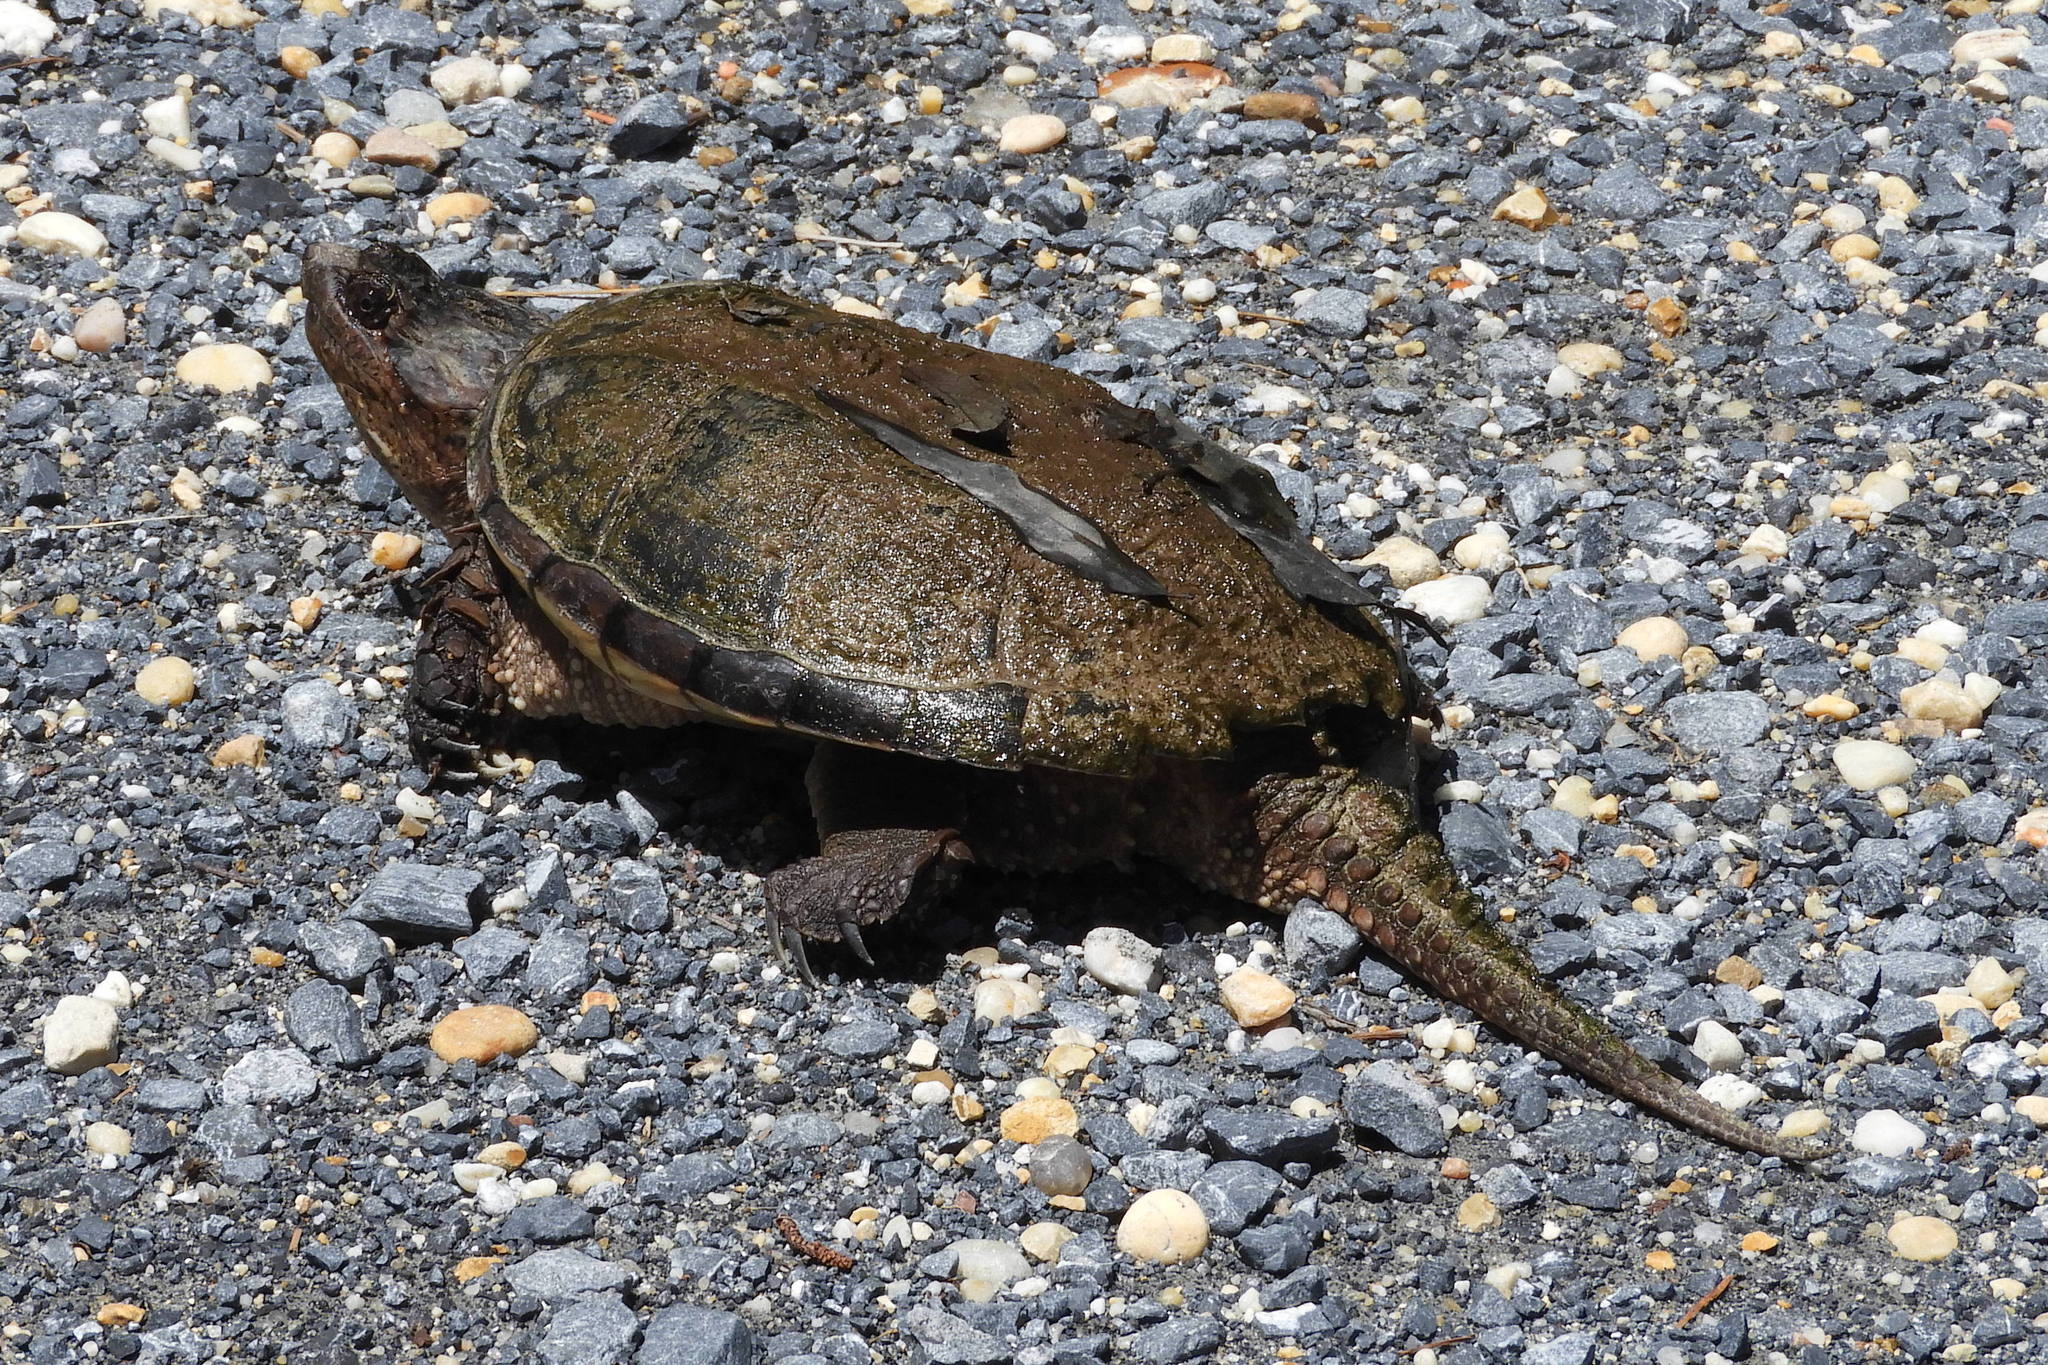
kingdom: Animalia
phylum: Chordata
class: Testudines
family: Chelydridae
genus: Chelydra
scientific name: Chelydra serpentina
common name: Common snapping turtle
